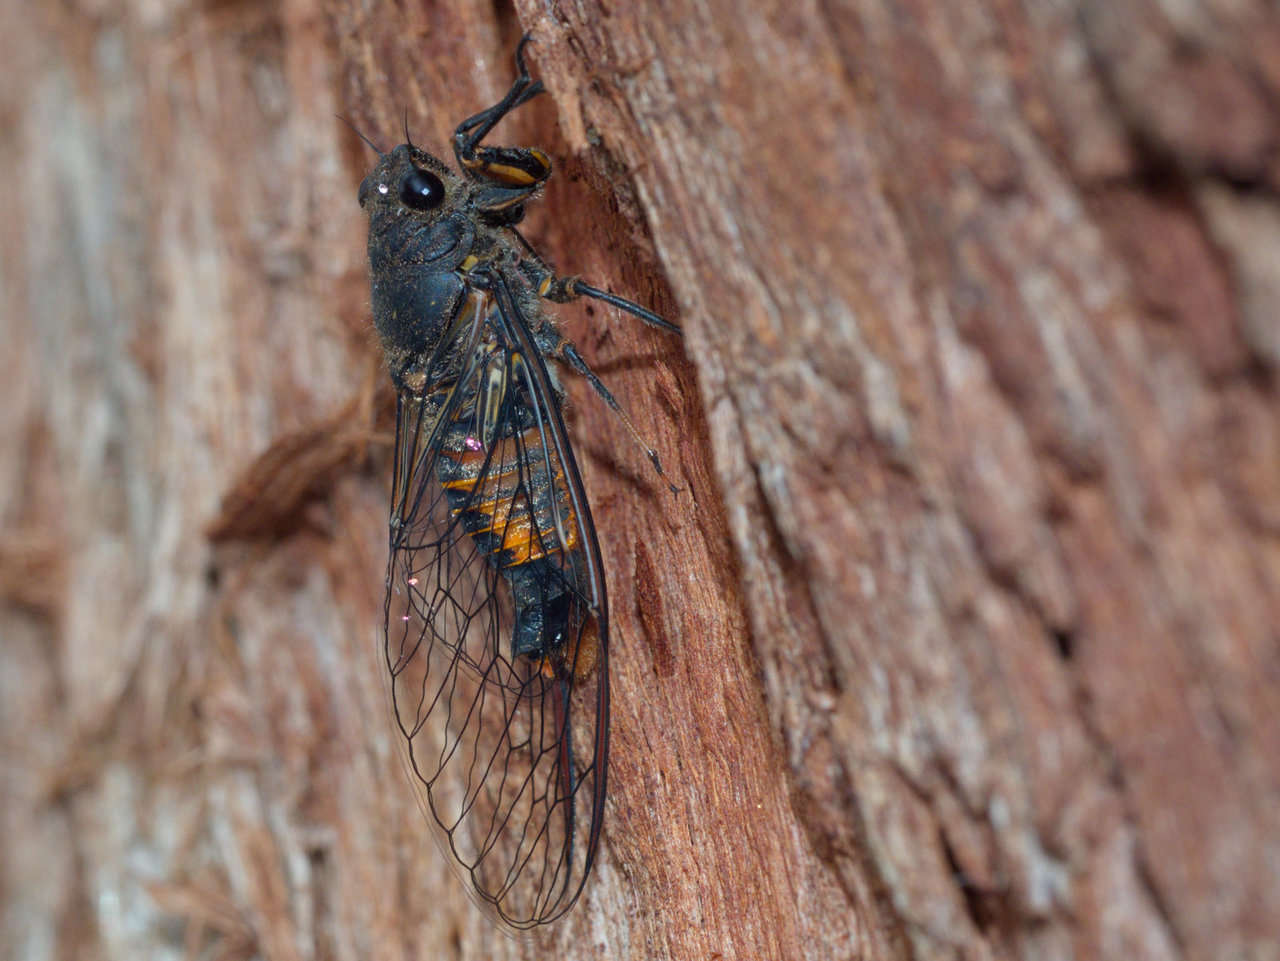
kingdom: Animalia
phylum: Arthropoda
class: Insecta
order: Hemiptera
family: Cicadidae
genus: Yoyetta
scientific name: Yoyetta robertsonae
